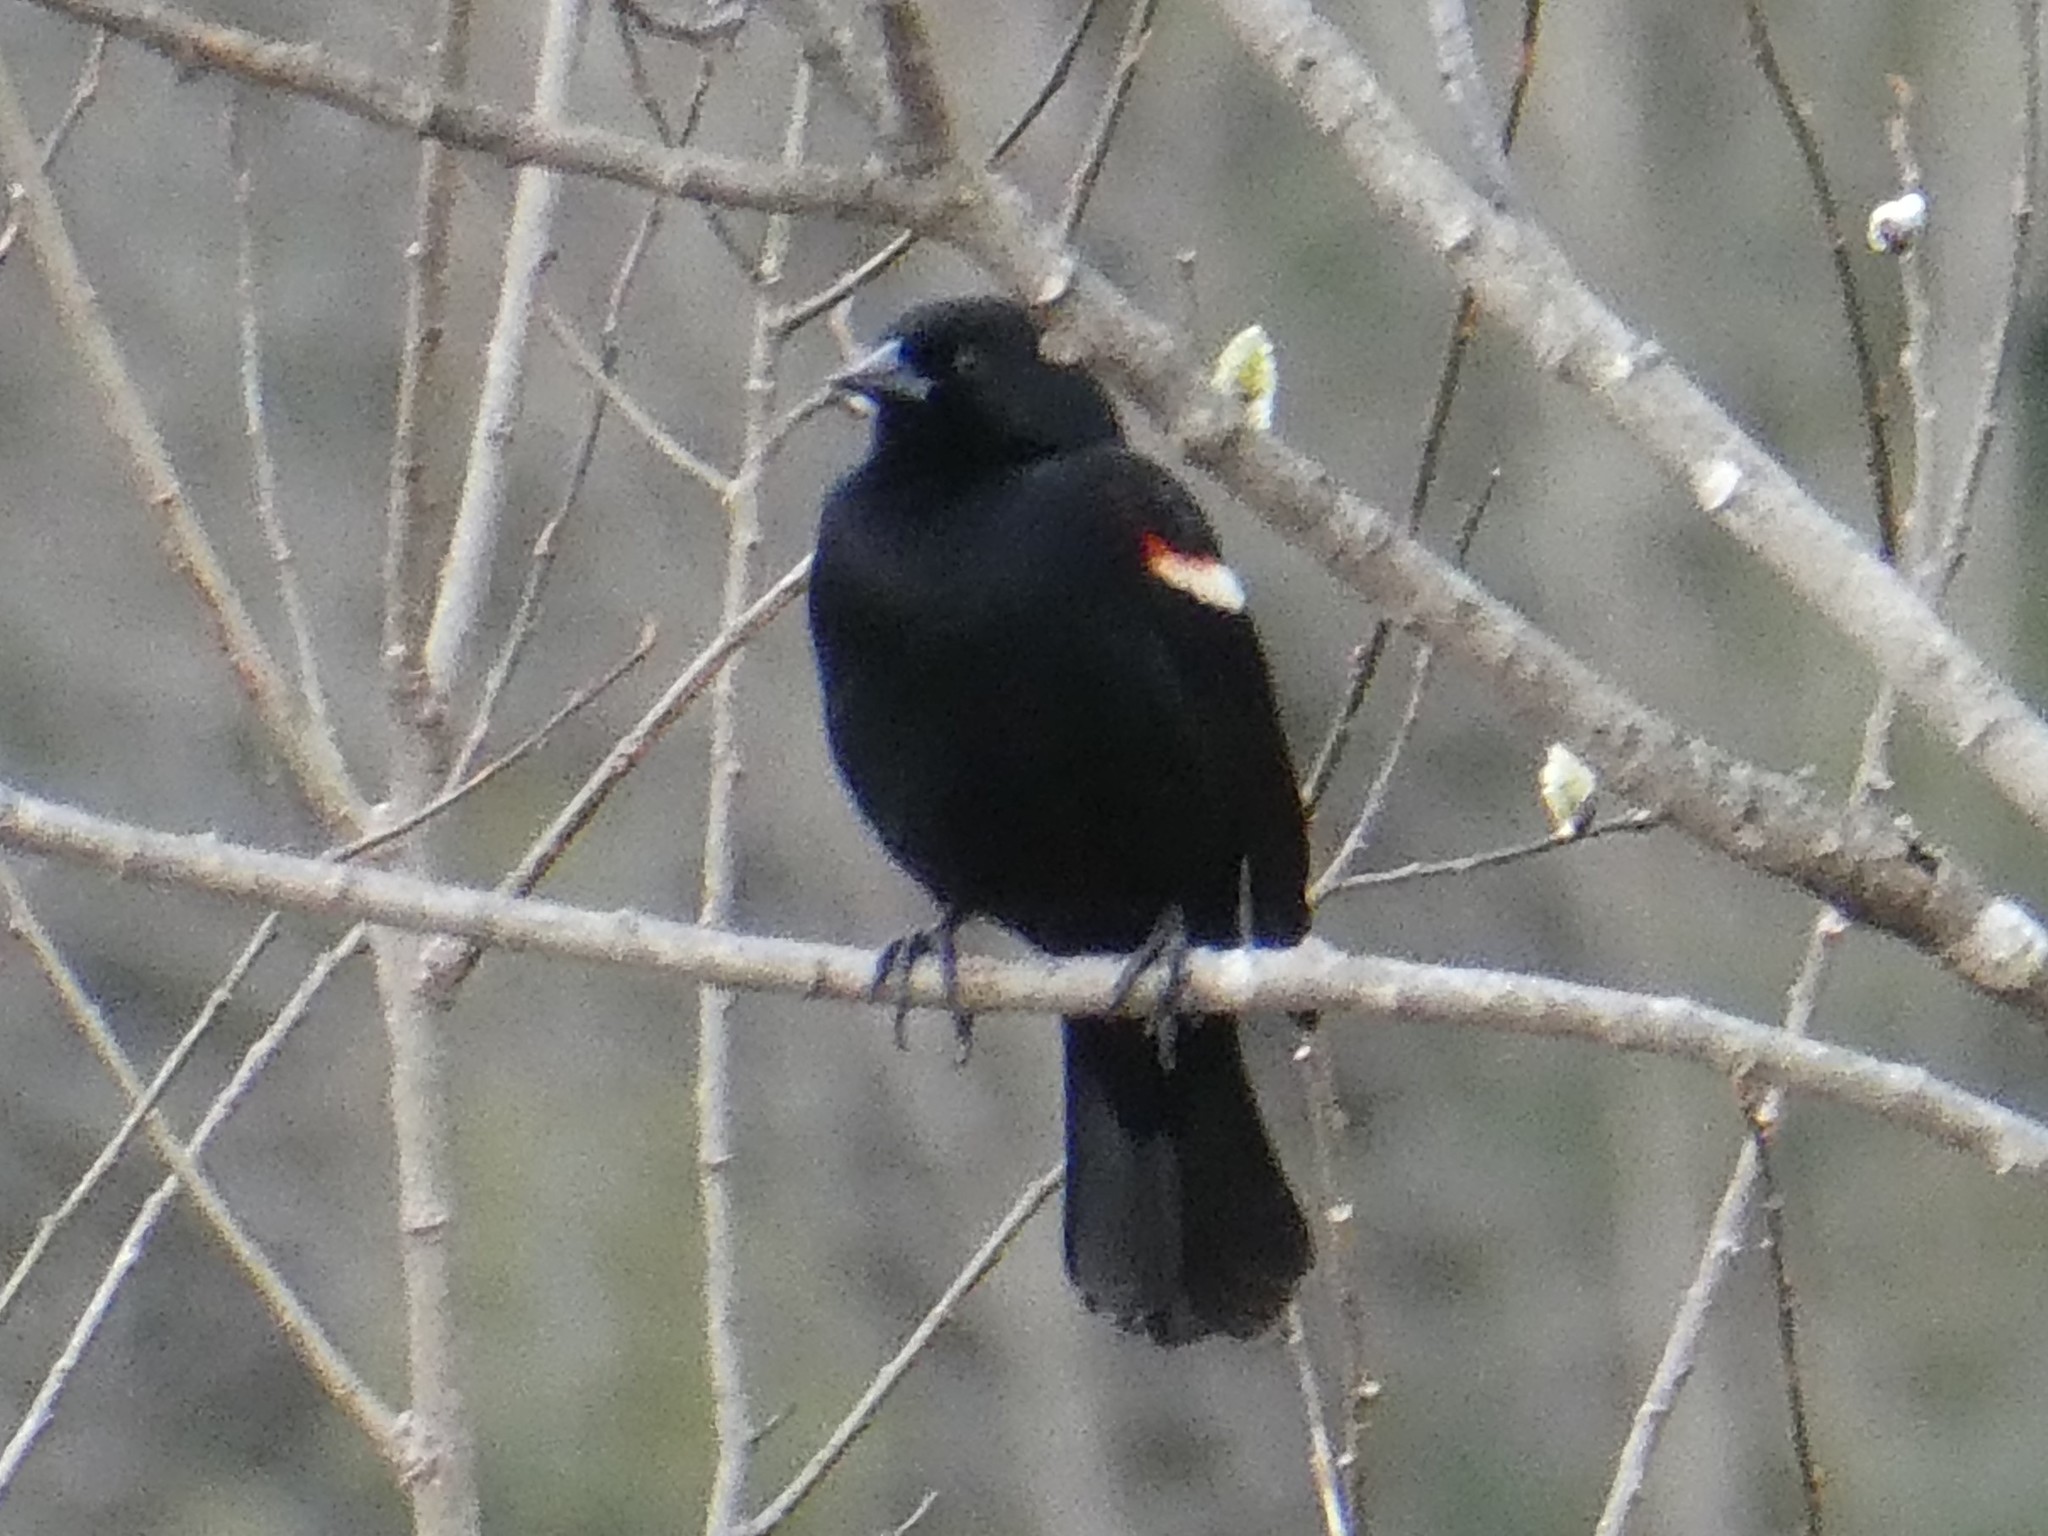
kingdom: Animalia
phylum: Chordata
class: Aves
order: Passeriformes
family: Icteridae
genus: Agelaius
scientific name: Agelaius phoeniceus
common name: Red-winged blackbird
